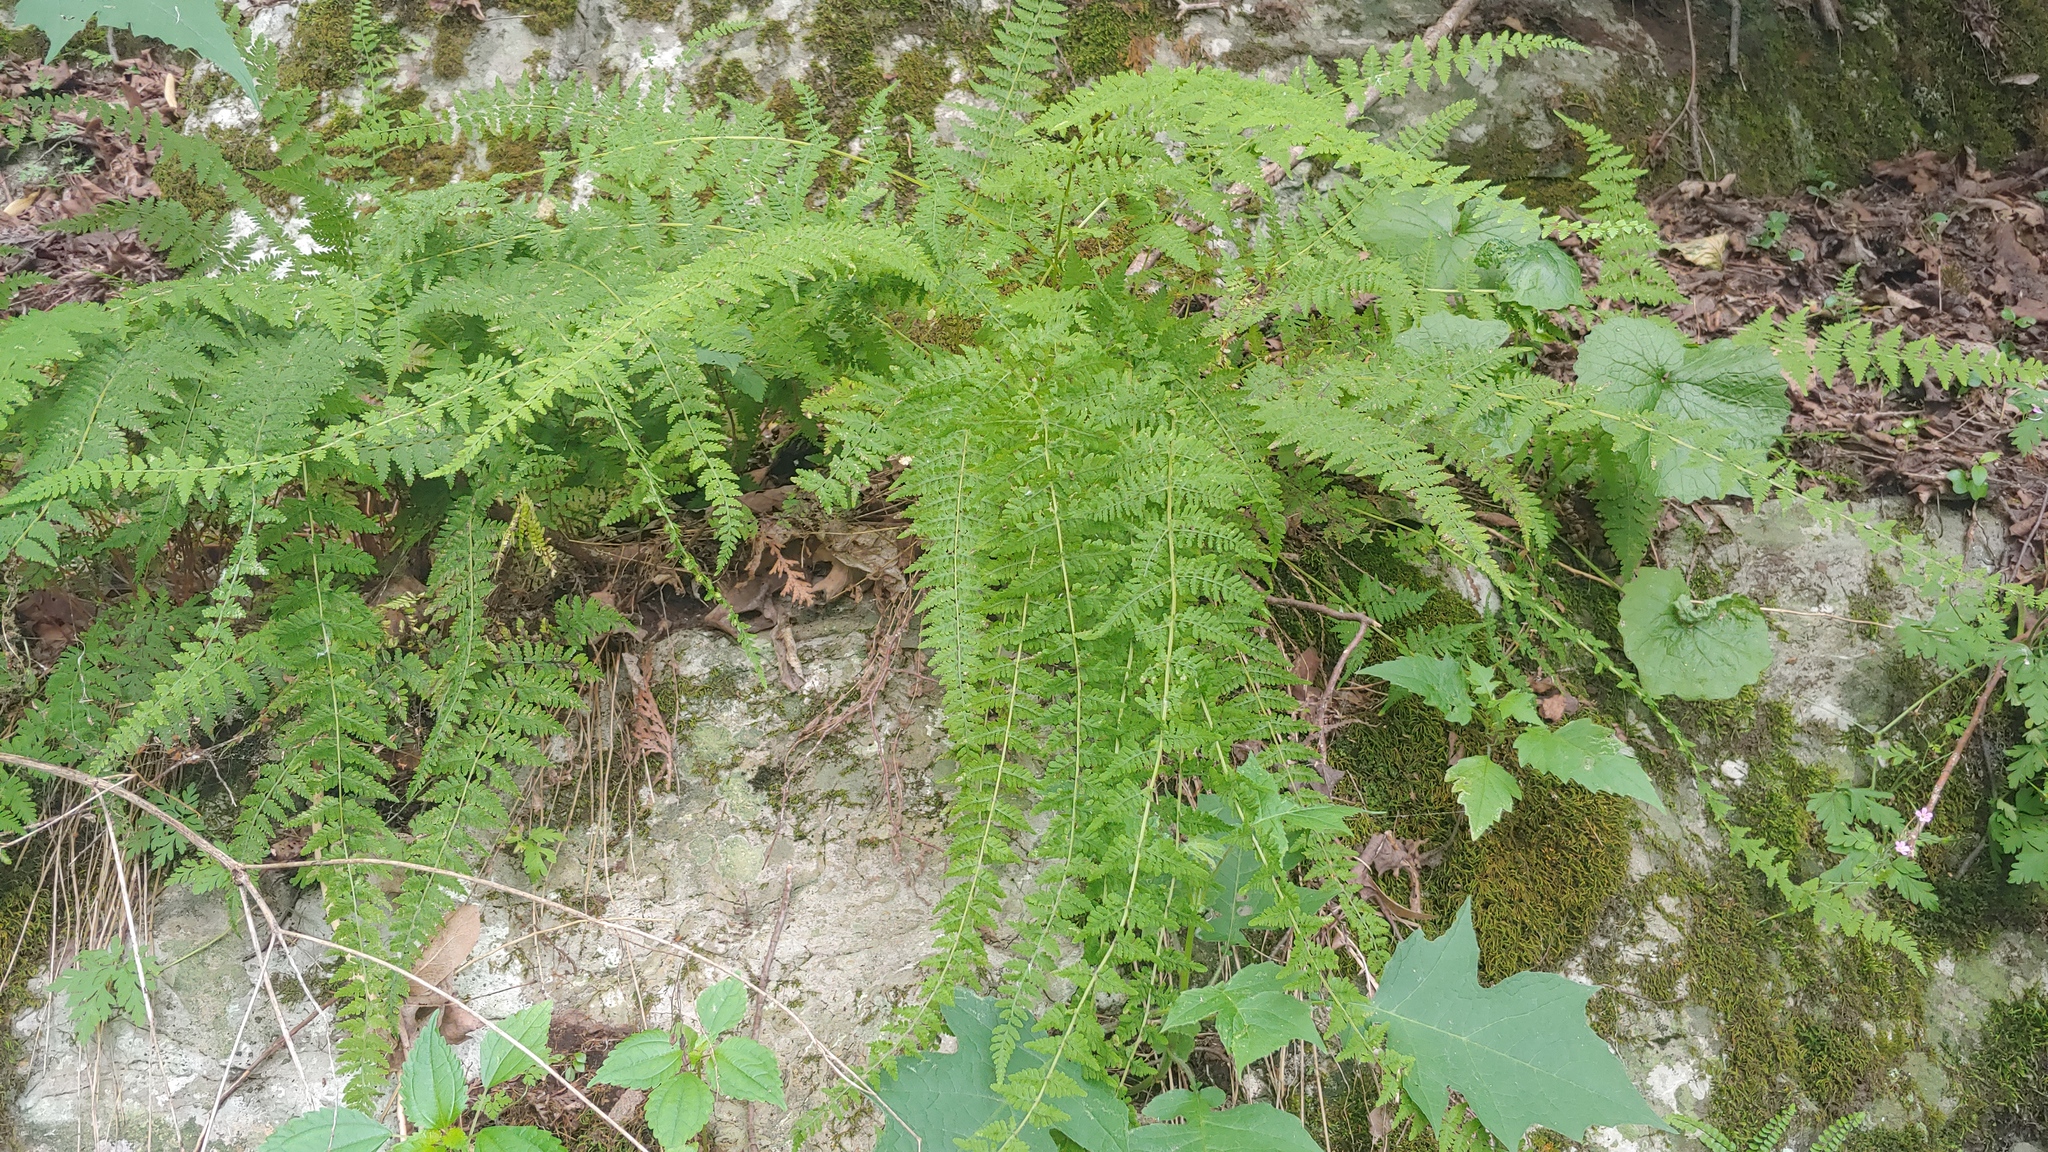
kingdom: Plantae
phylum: Tracheophyta
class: Polypodiopsida
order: Polypodiales
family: Cystopteridaceae
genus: Cystopteris
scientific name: Cystopteris bulbifera
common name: Bulblet bladder fern
